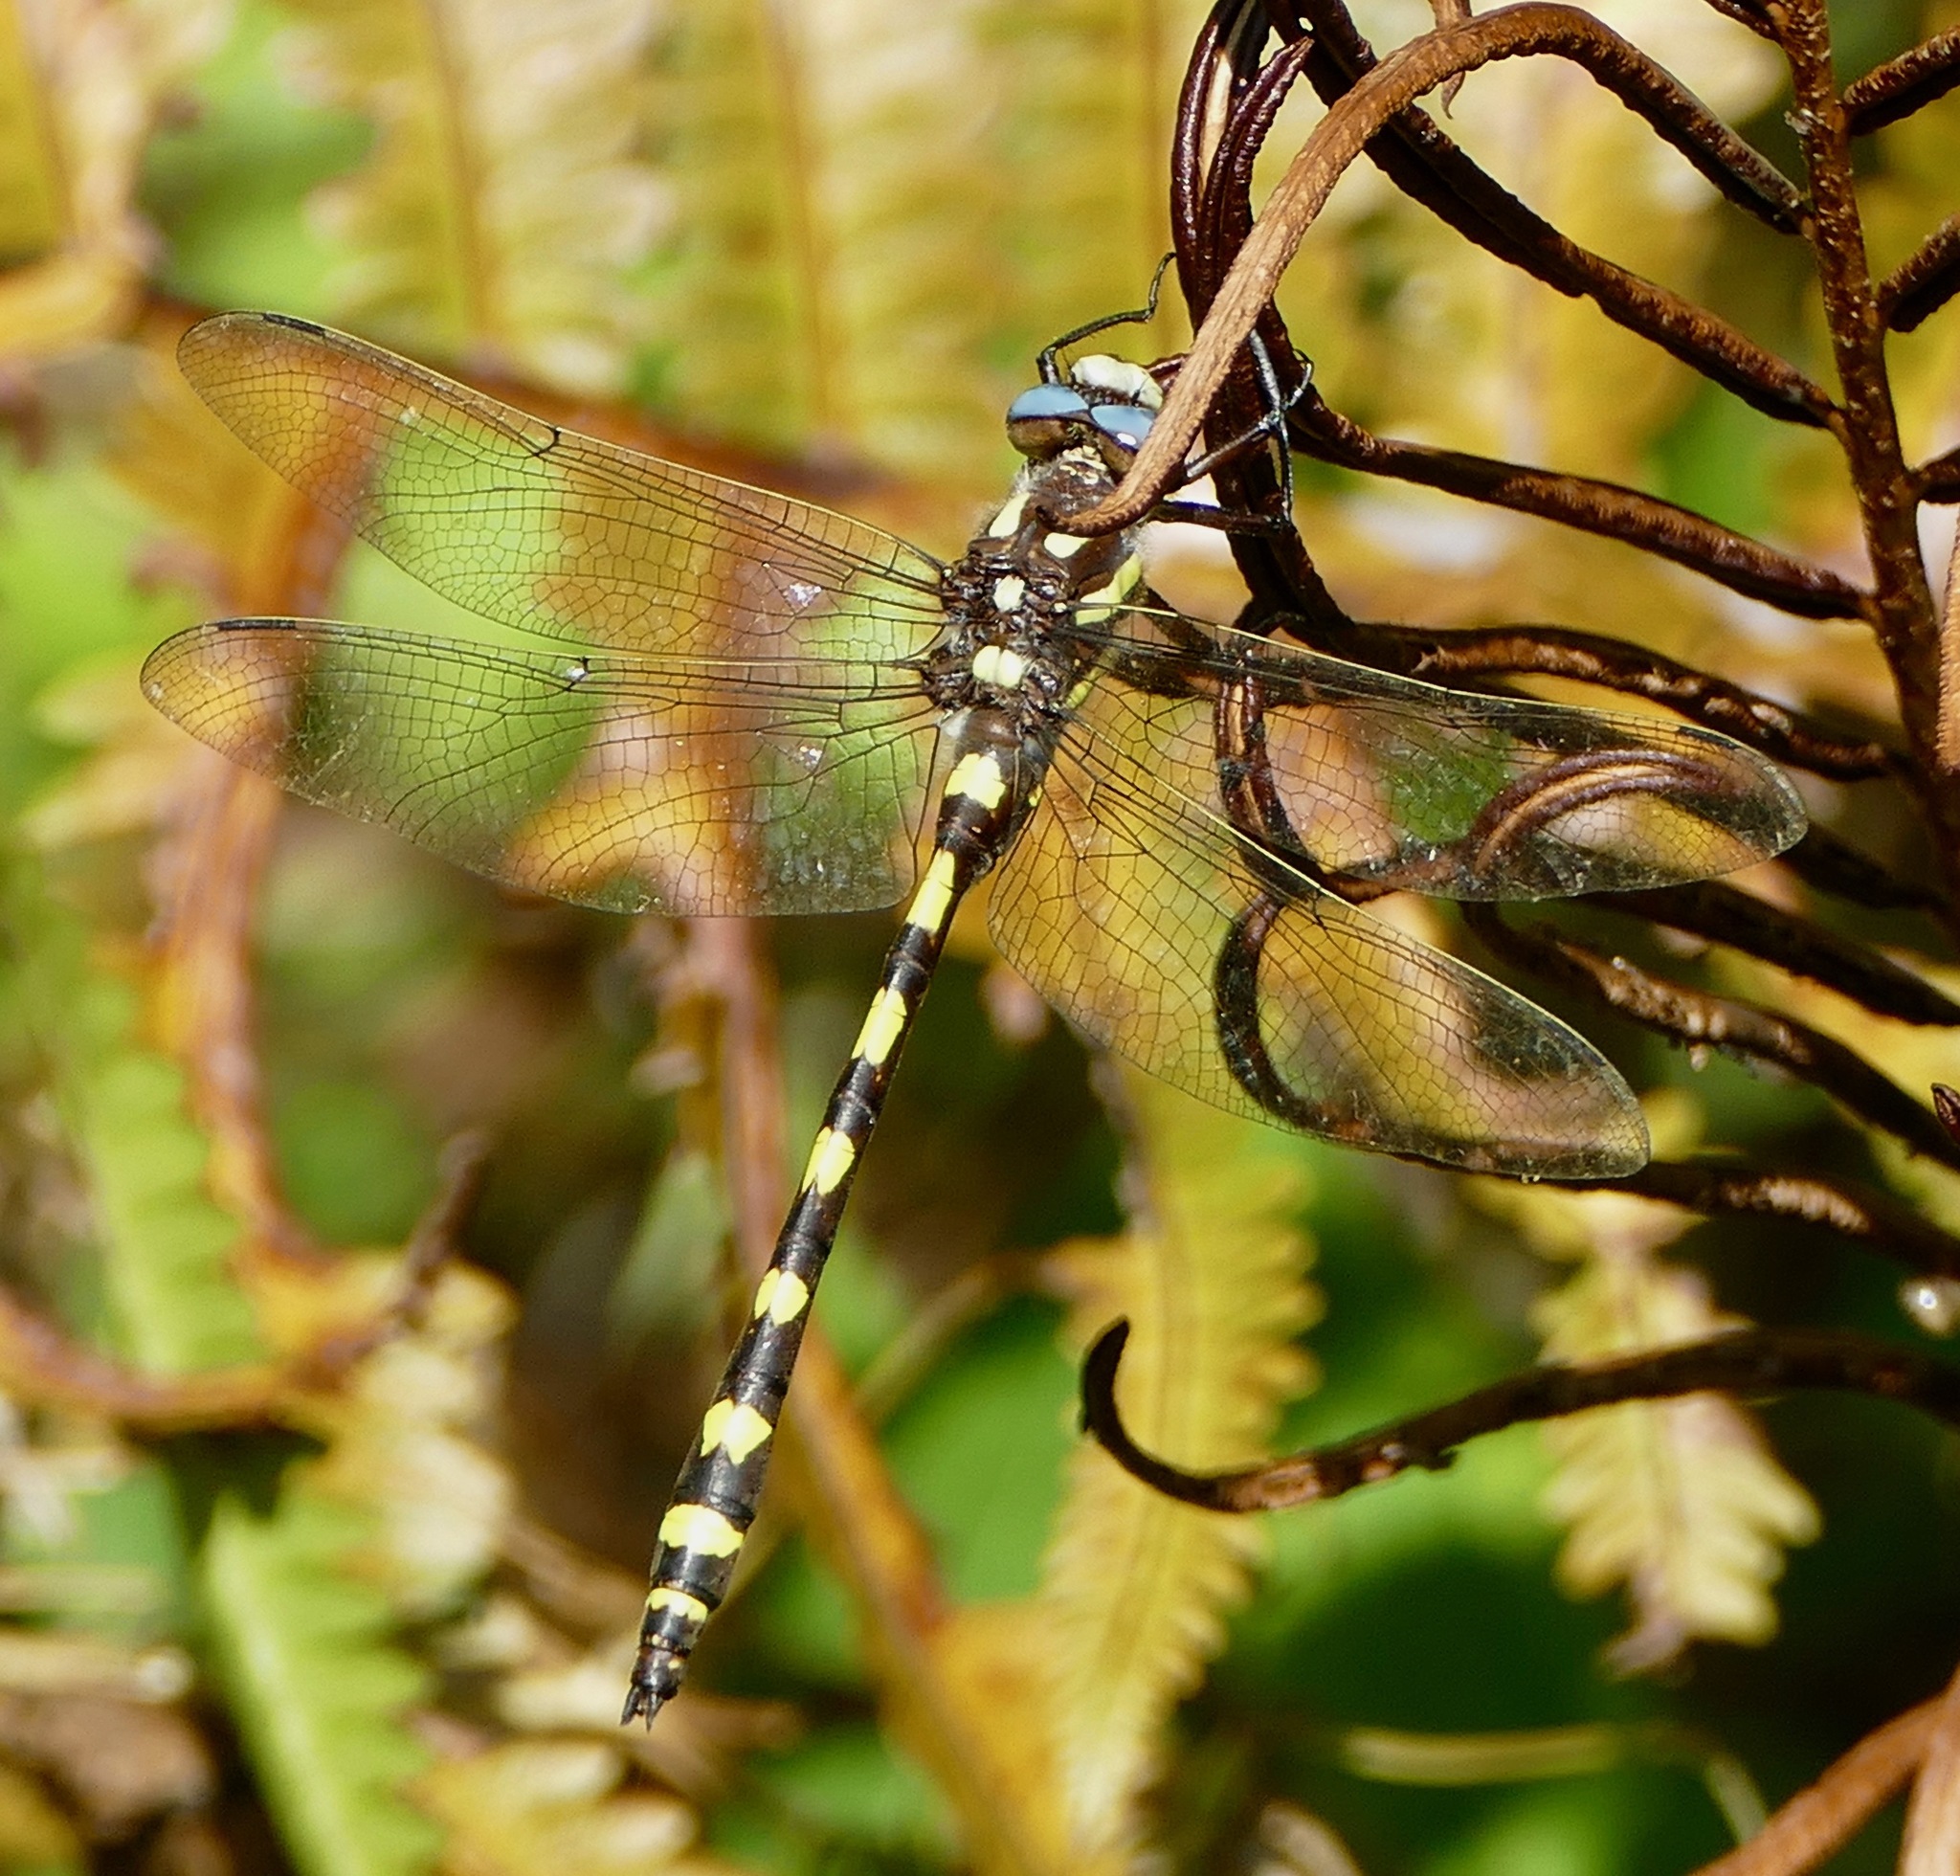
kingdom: Animalia
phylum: Arthropoda
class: Insecta
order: Odonata
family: Cordulegastridae
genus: Cordulegaster
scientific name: Cordulegaster dorsalis
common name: Pacific spiketail
